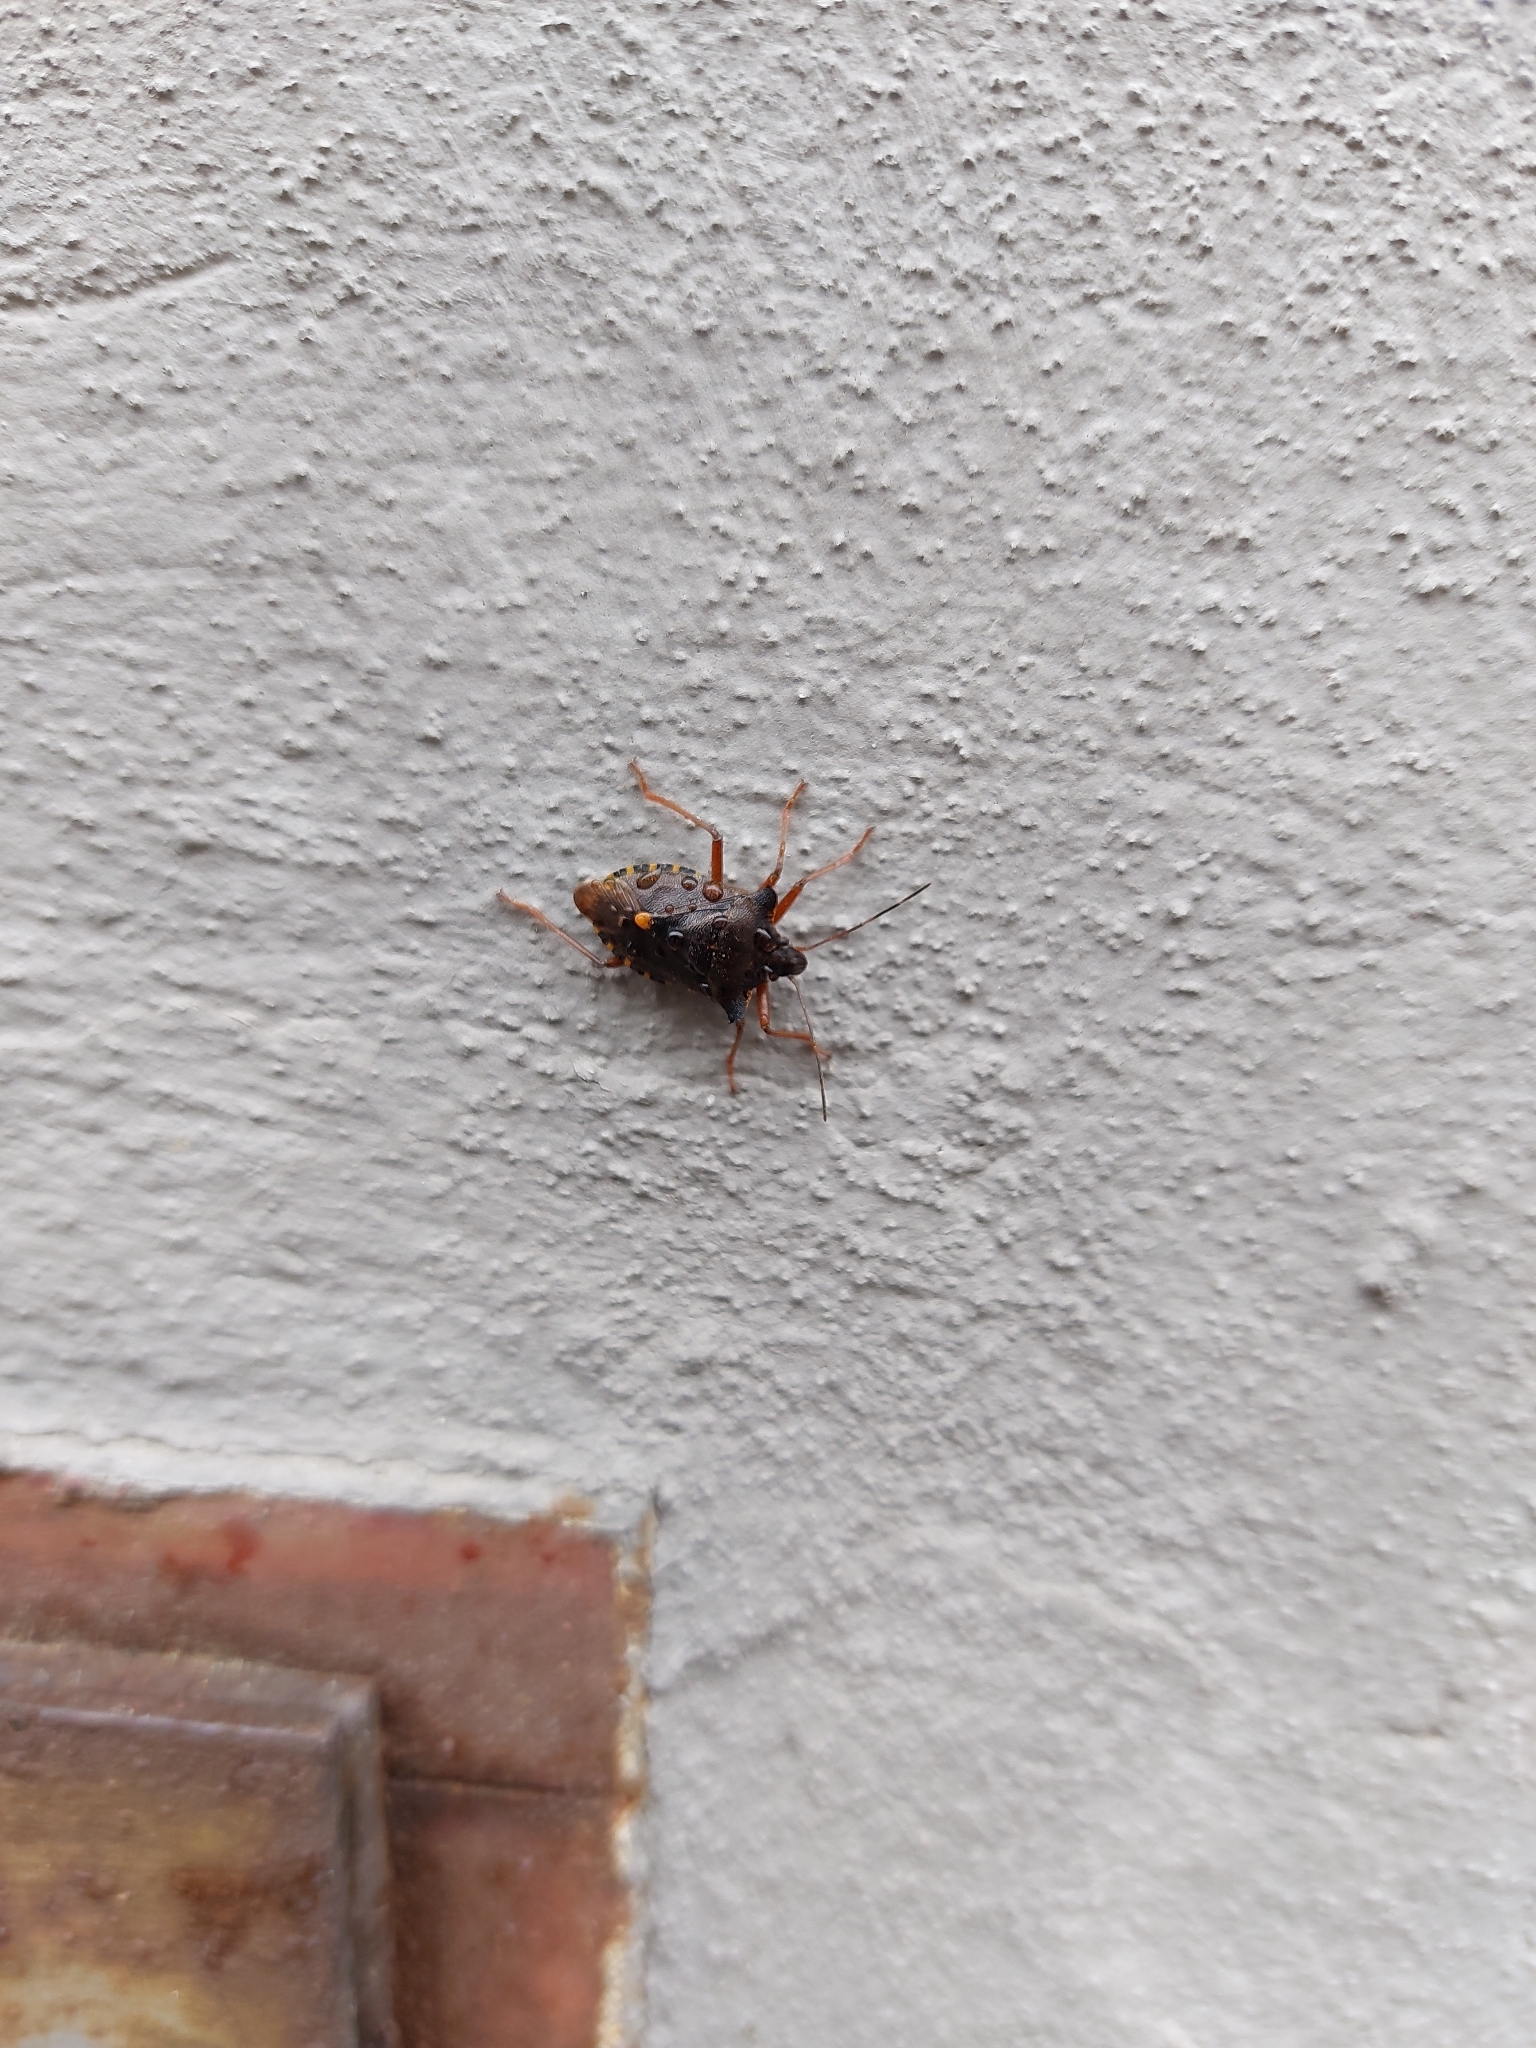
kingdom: Animalia
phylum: Arthropoda
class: Insecta
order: Hemiptera
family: Pentatomidae
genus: Pentatoma
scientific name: Pentatoma rufipes
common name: Forest bug
